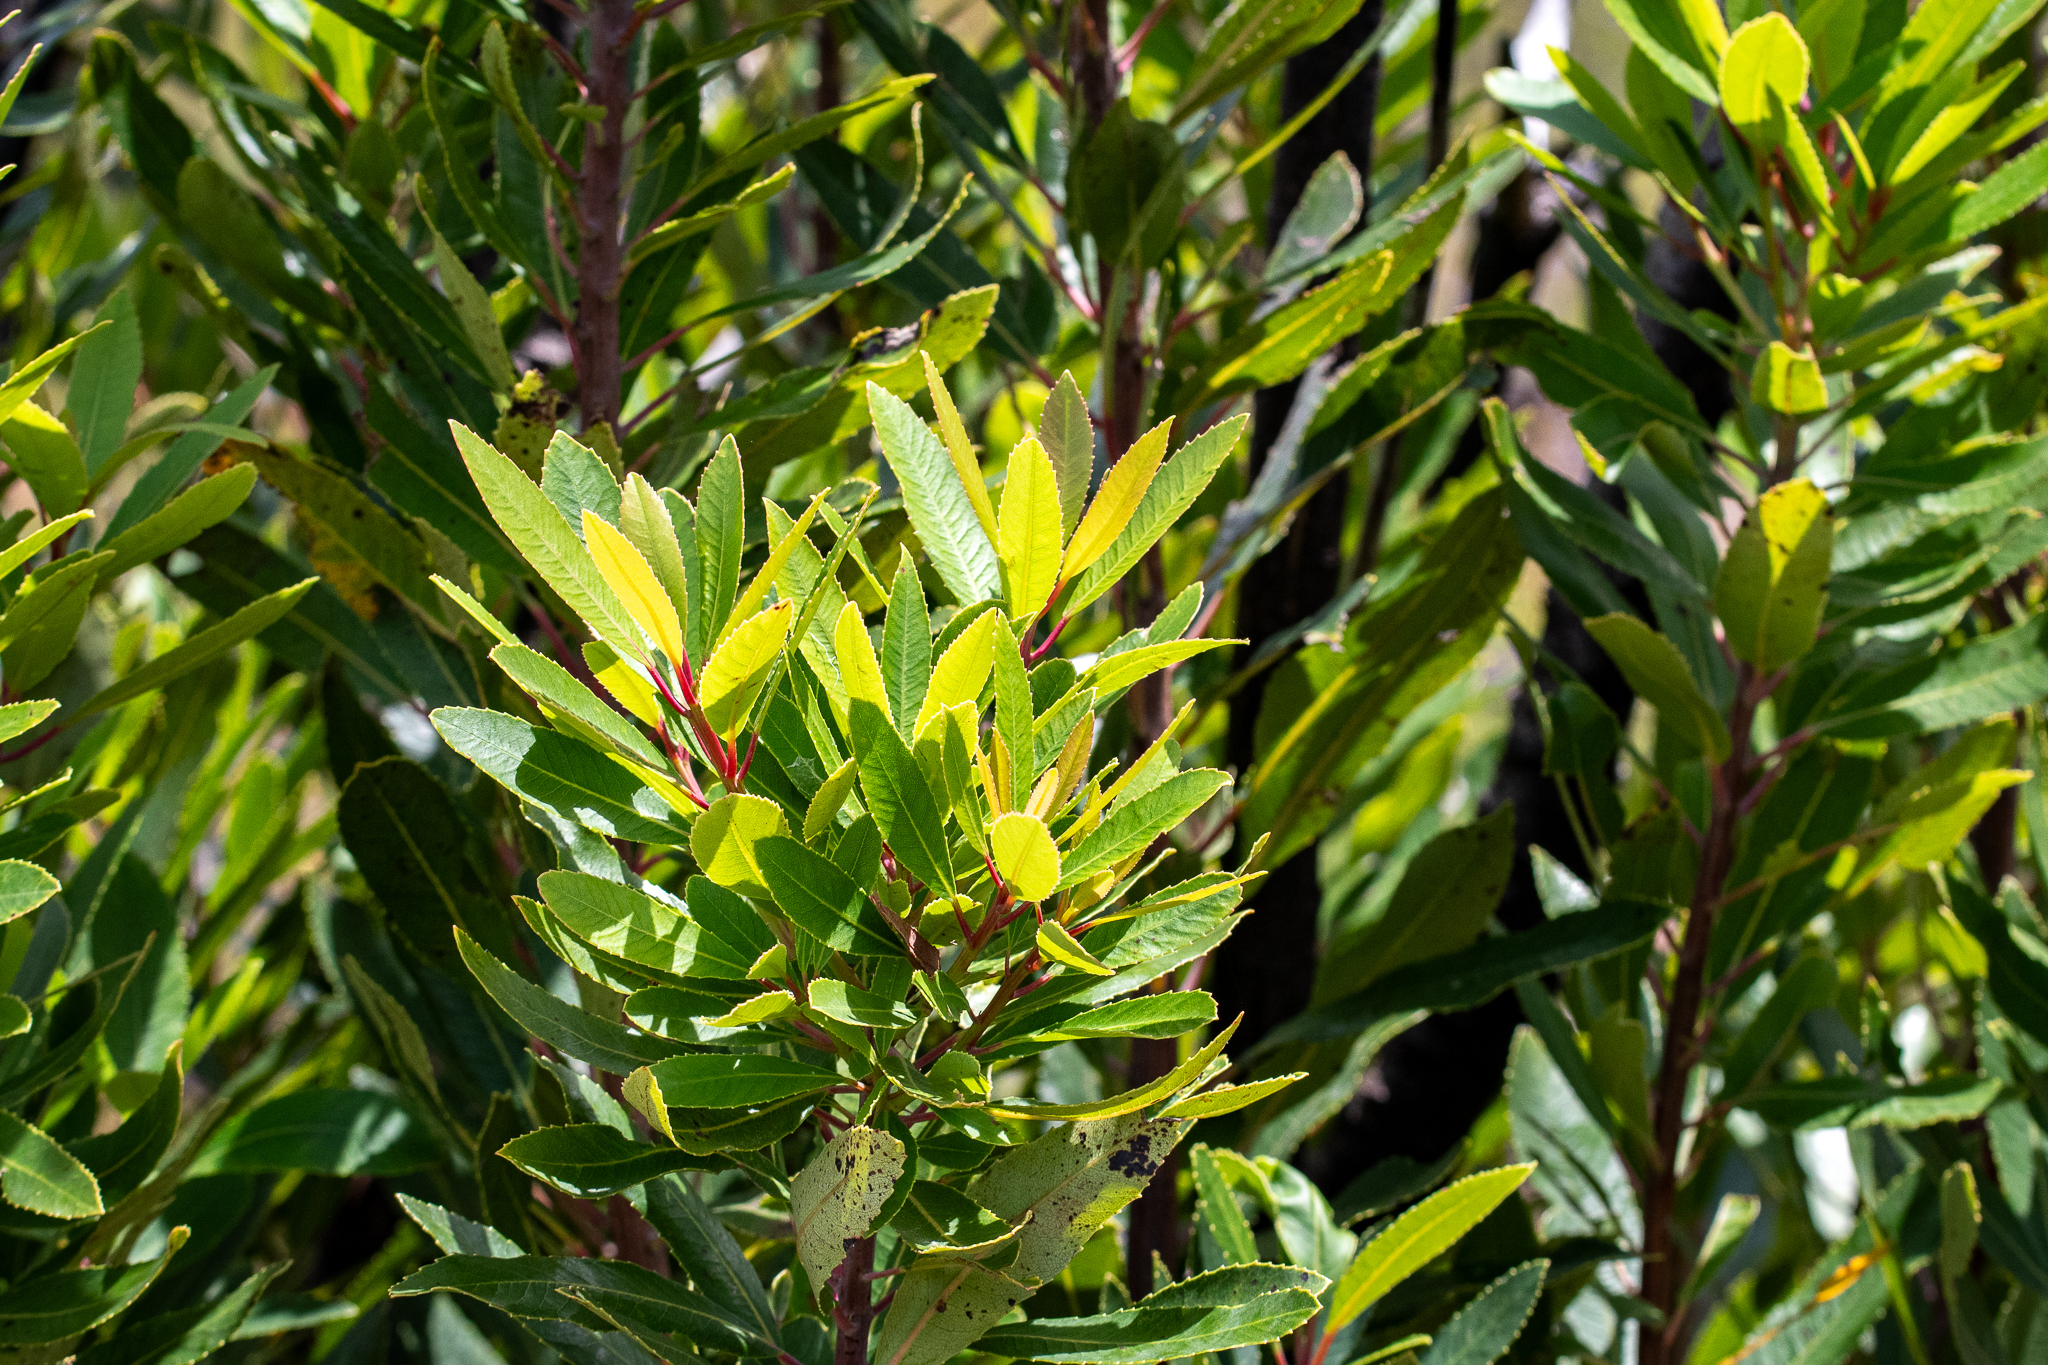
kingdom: Plantae
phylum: Tracheophyta
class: Magnoliopsida
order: Sapindales
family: Anacardiaceae
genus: Laurophyllus
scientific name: Laurophyllus capensis
